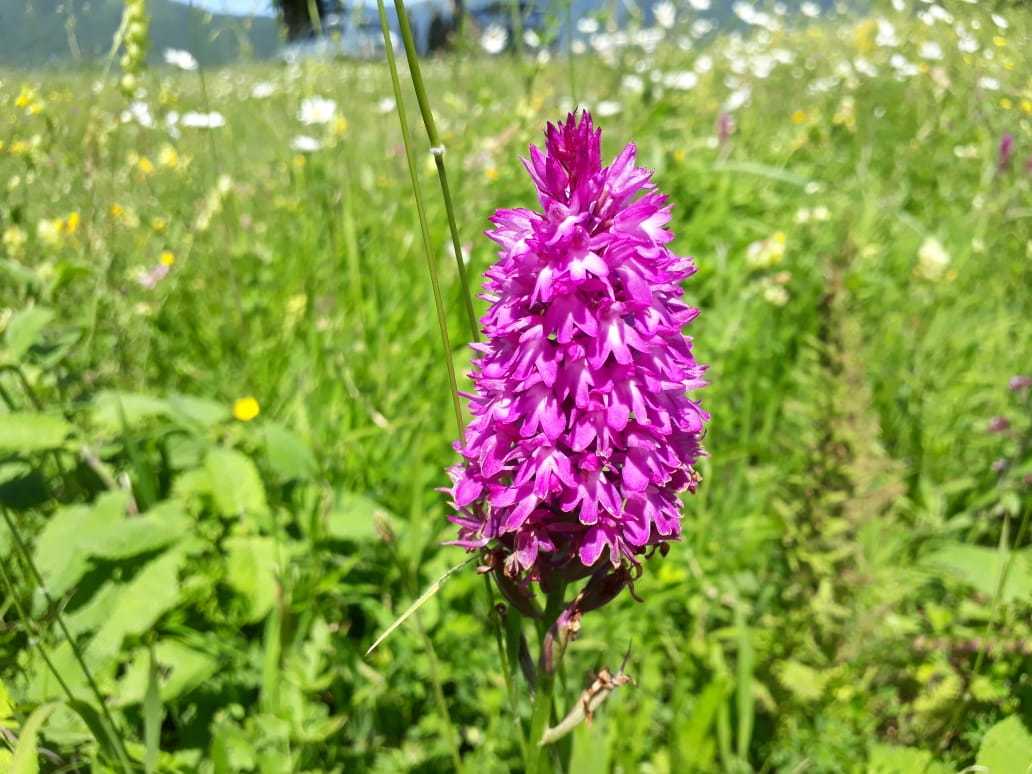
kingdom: Plantae
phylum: Tracheophyta
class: Liliopsida
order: Asparagales
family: Orchidaceae
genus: Anacamptis
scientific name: Anacamptis pyramidalis
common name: Pyramidal orchid
